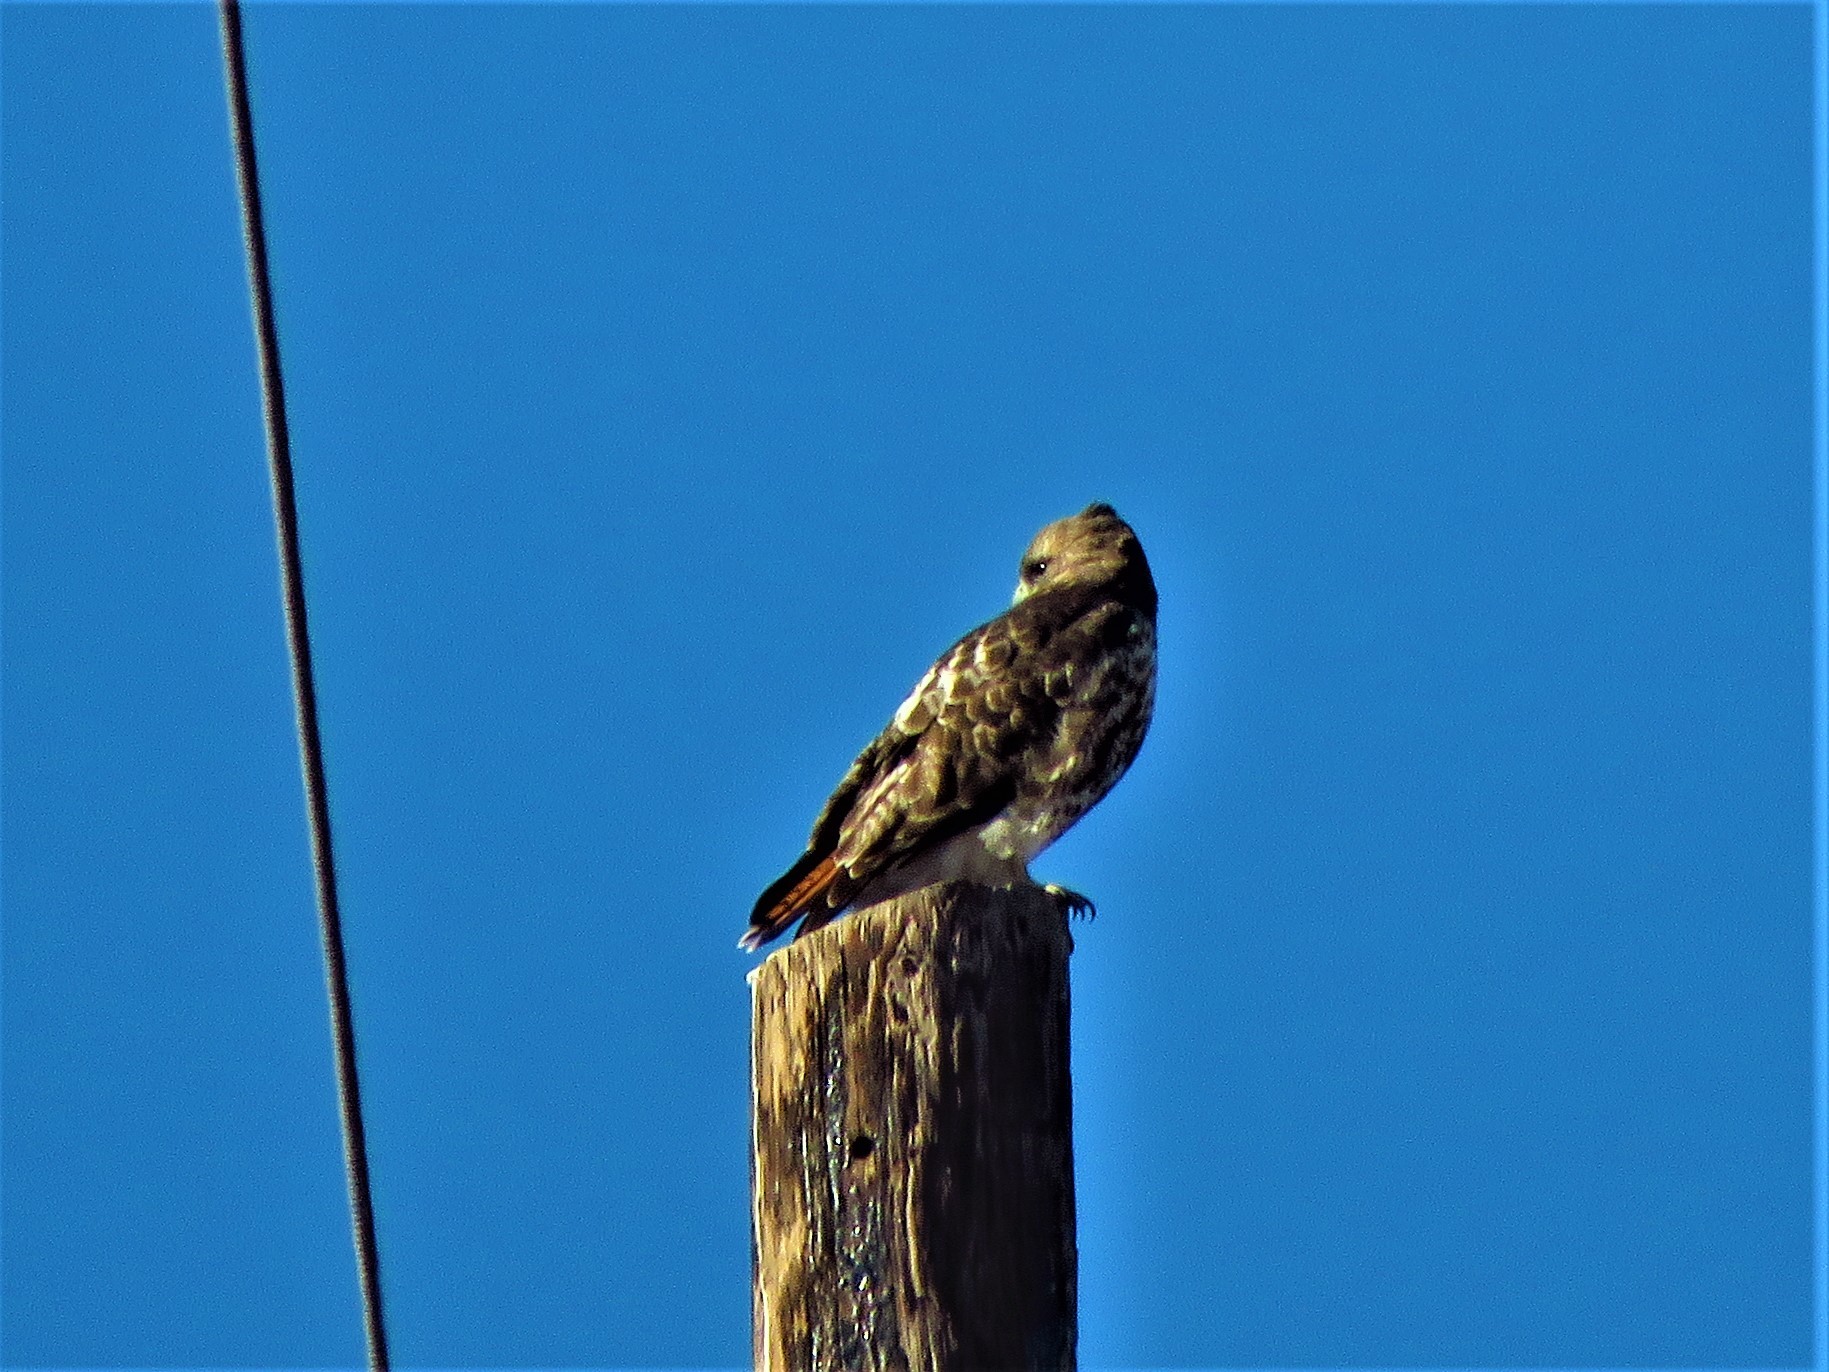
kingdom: Animalia
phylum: Chordata
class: Aves
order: Accipitriformes
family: Accipitridae
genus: Buteo
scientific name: Buteo jamaicensis
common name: Red-tailed hawk
